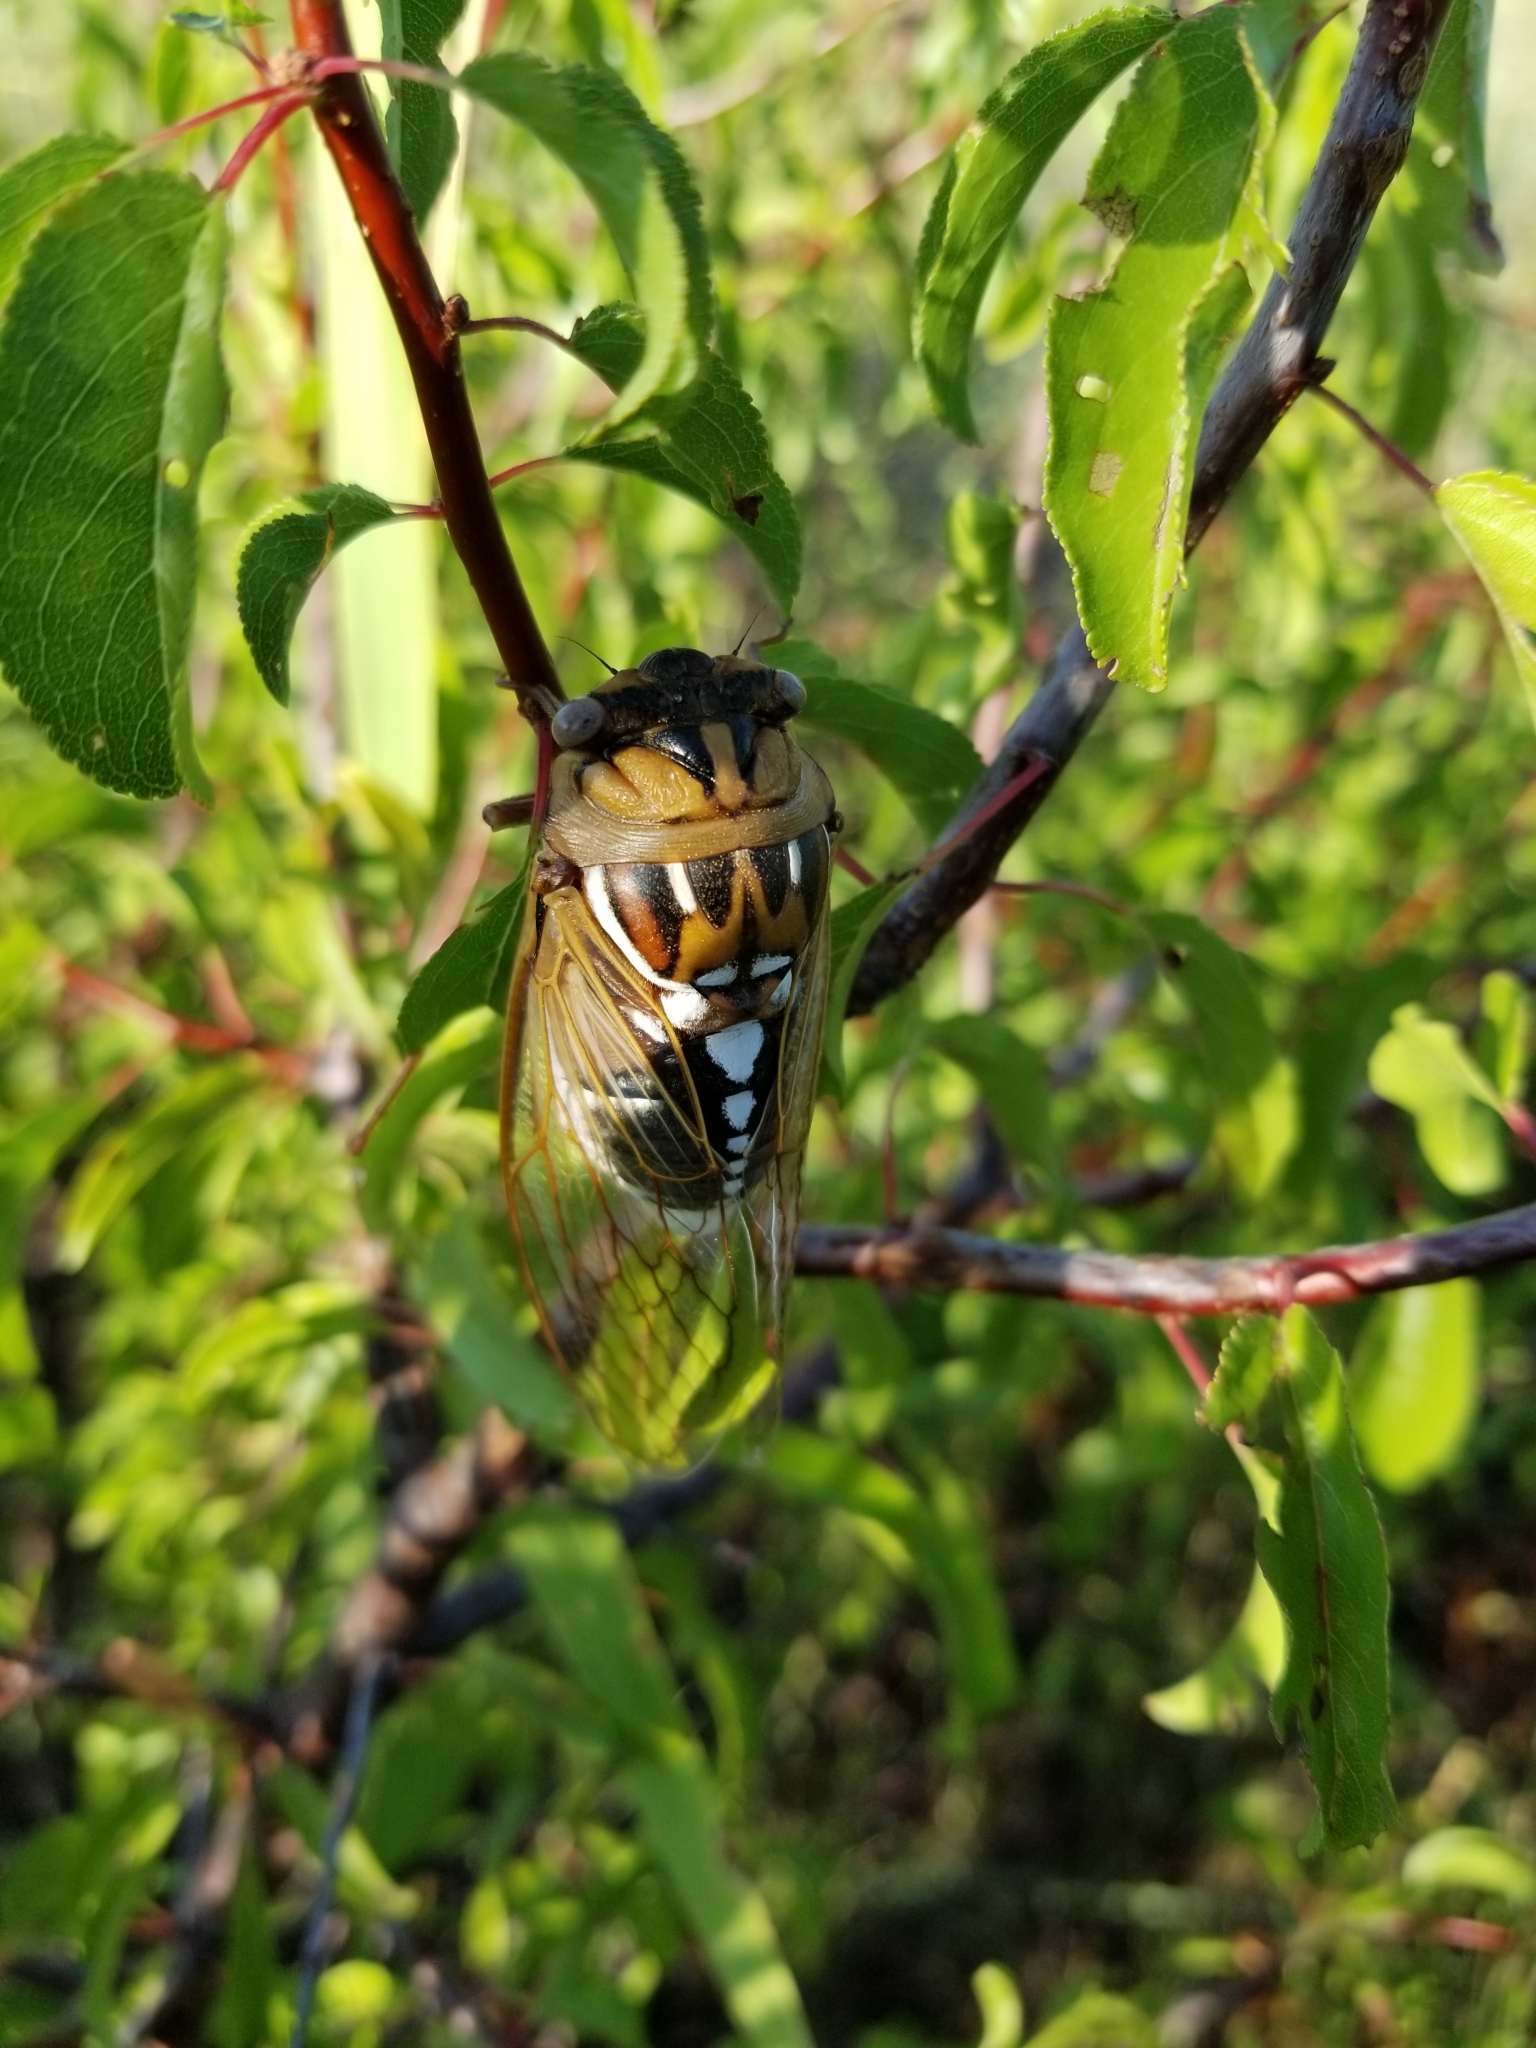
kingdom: Animalia
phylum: Arthropoda
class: Insecta
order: Hemiptera
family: Cicadidae
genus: Megatibicen
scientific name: Megatibicen dorsatus
